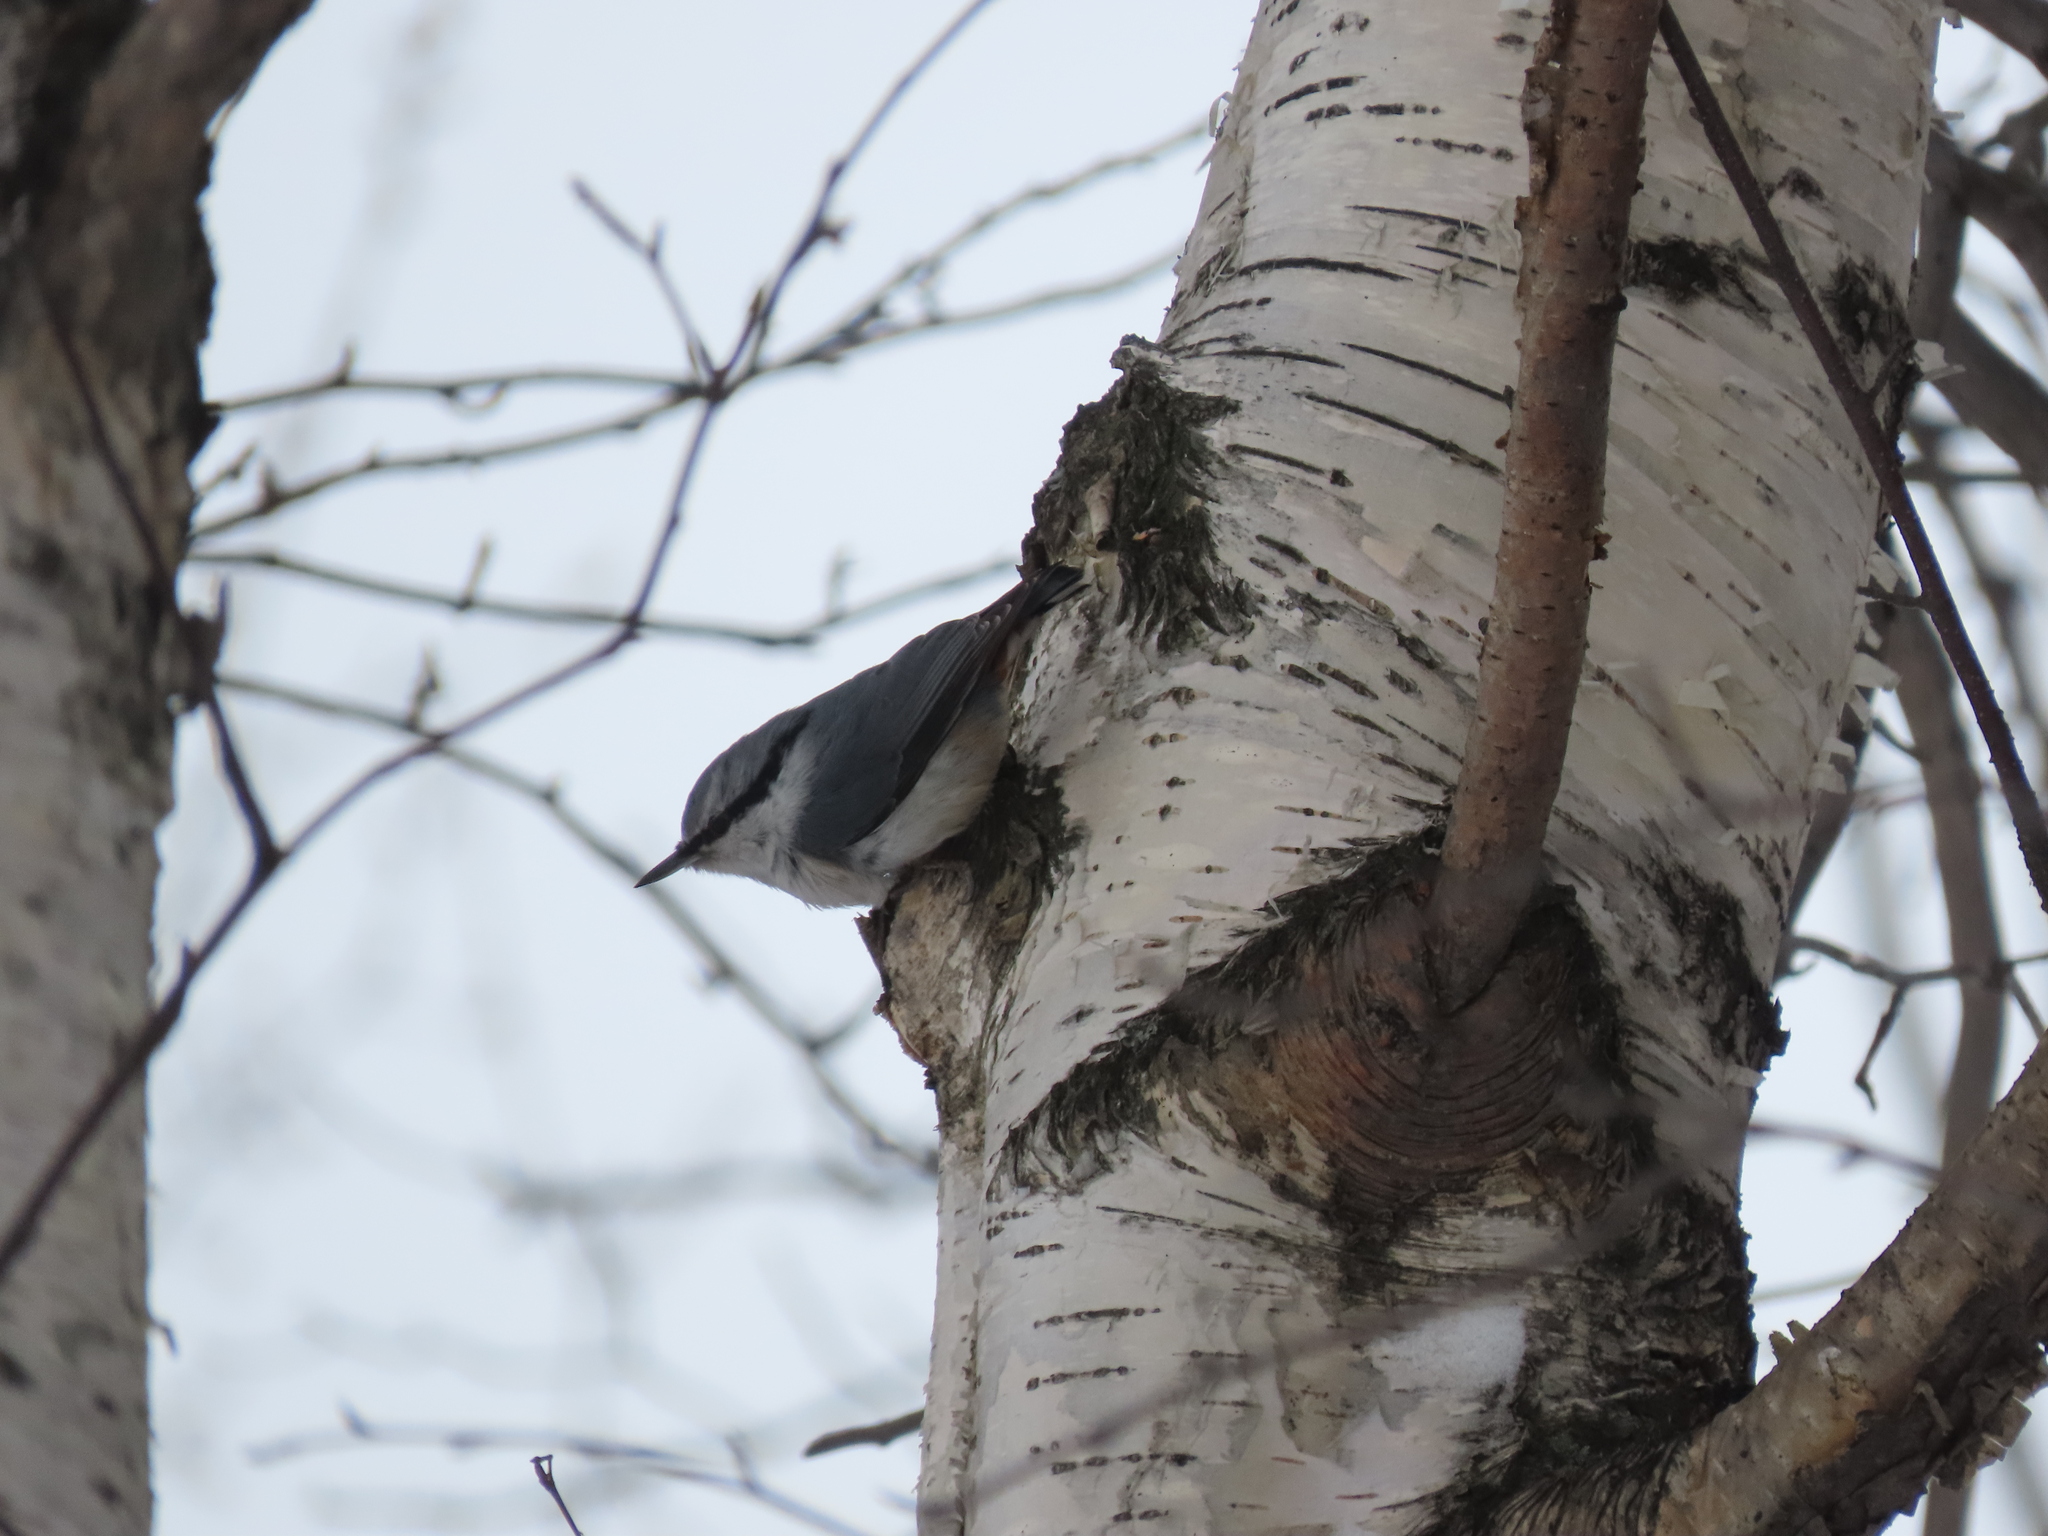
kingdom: Animalia
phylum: Chordata
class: Aves
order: Passeriformes
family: Sittidae
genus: Sitta
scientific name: Sitta europaea
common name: Eurasian nuthatch
